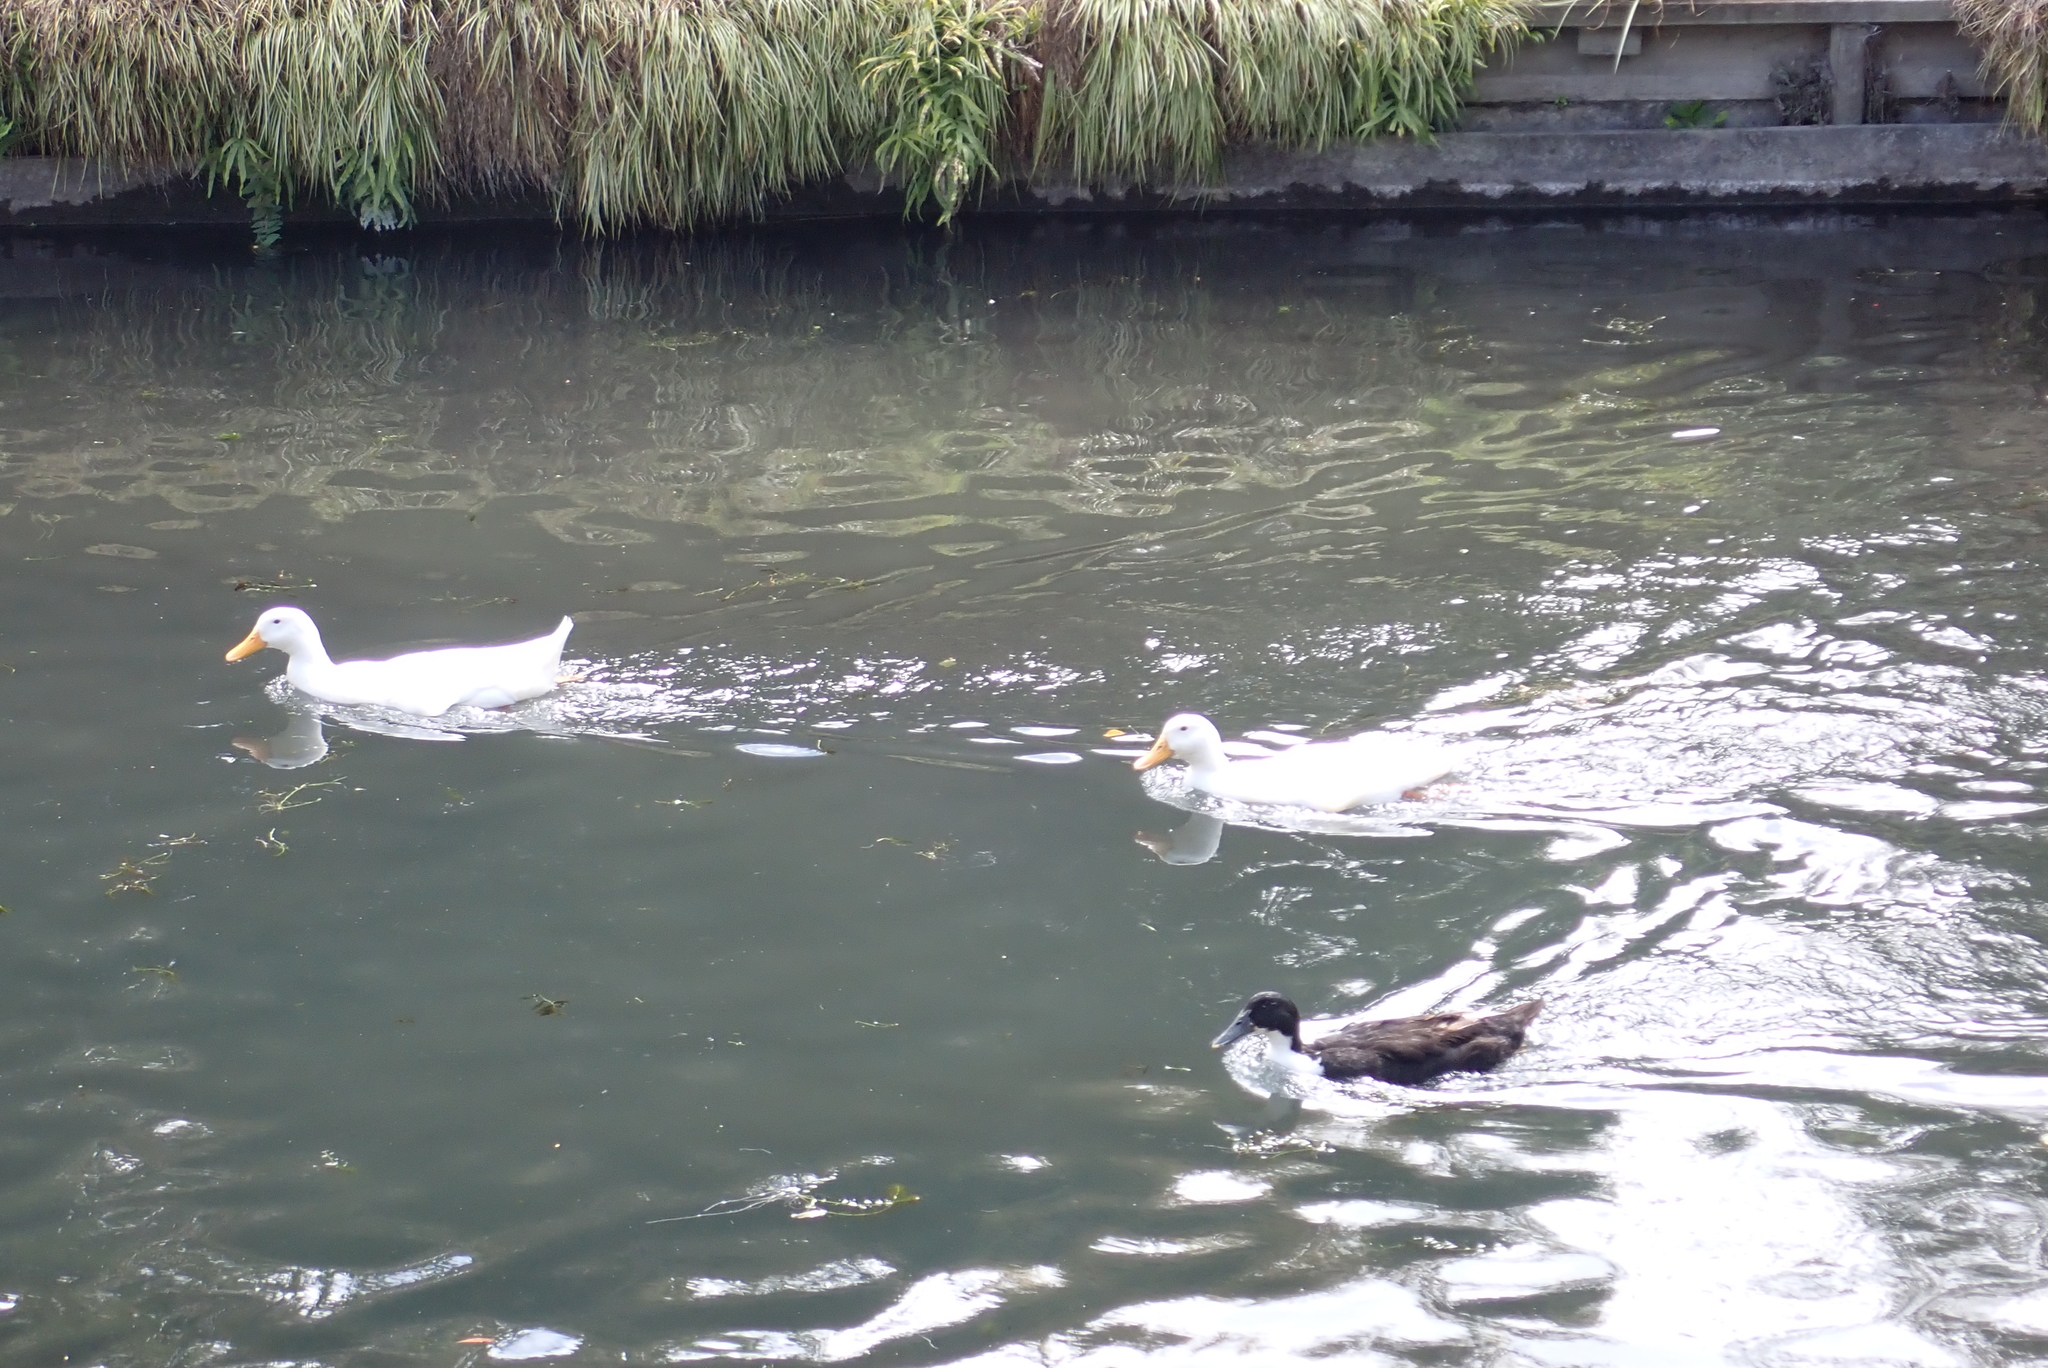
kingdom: Animalia
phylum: Chordata
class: Aves
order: Anseriformes
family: Anatidae
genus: Anas
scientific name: Anas platyrhynchos
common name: Mallard
